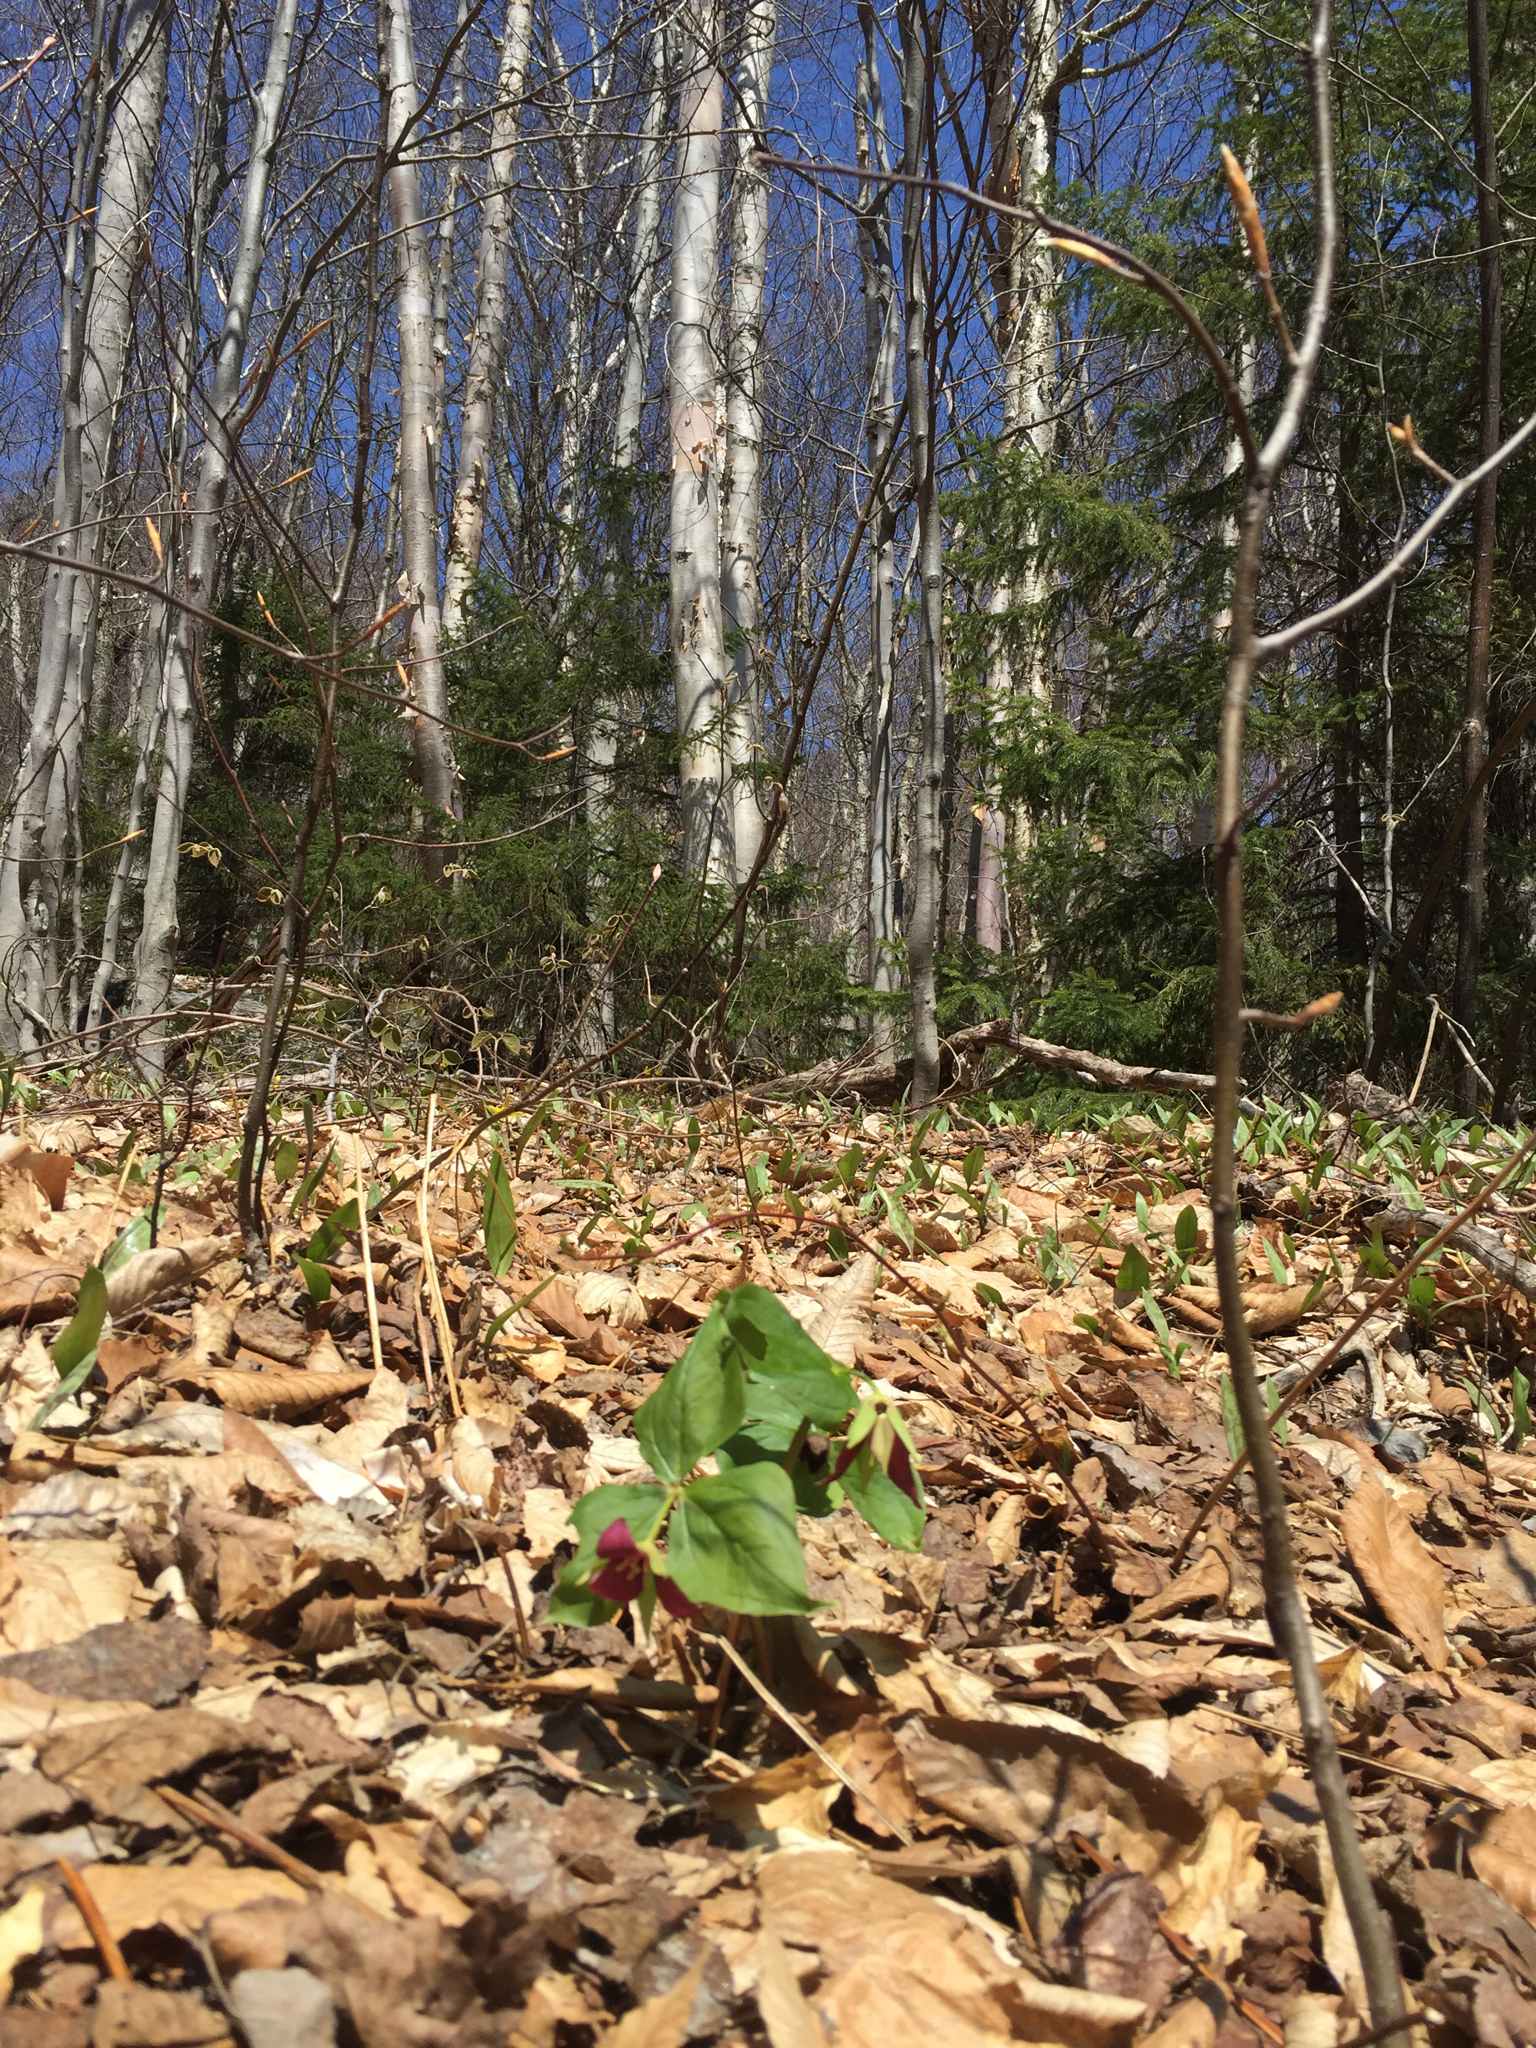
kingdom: Plantae
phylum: Tracheophyta
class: Liliopsida
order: Liliales
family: Melanthiaceae
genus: Trillium
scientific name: Trillium erectum
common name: Purple trillium
